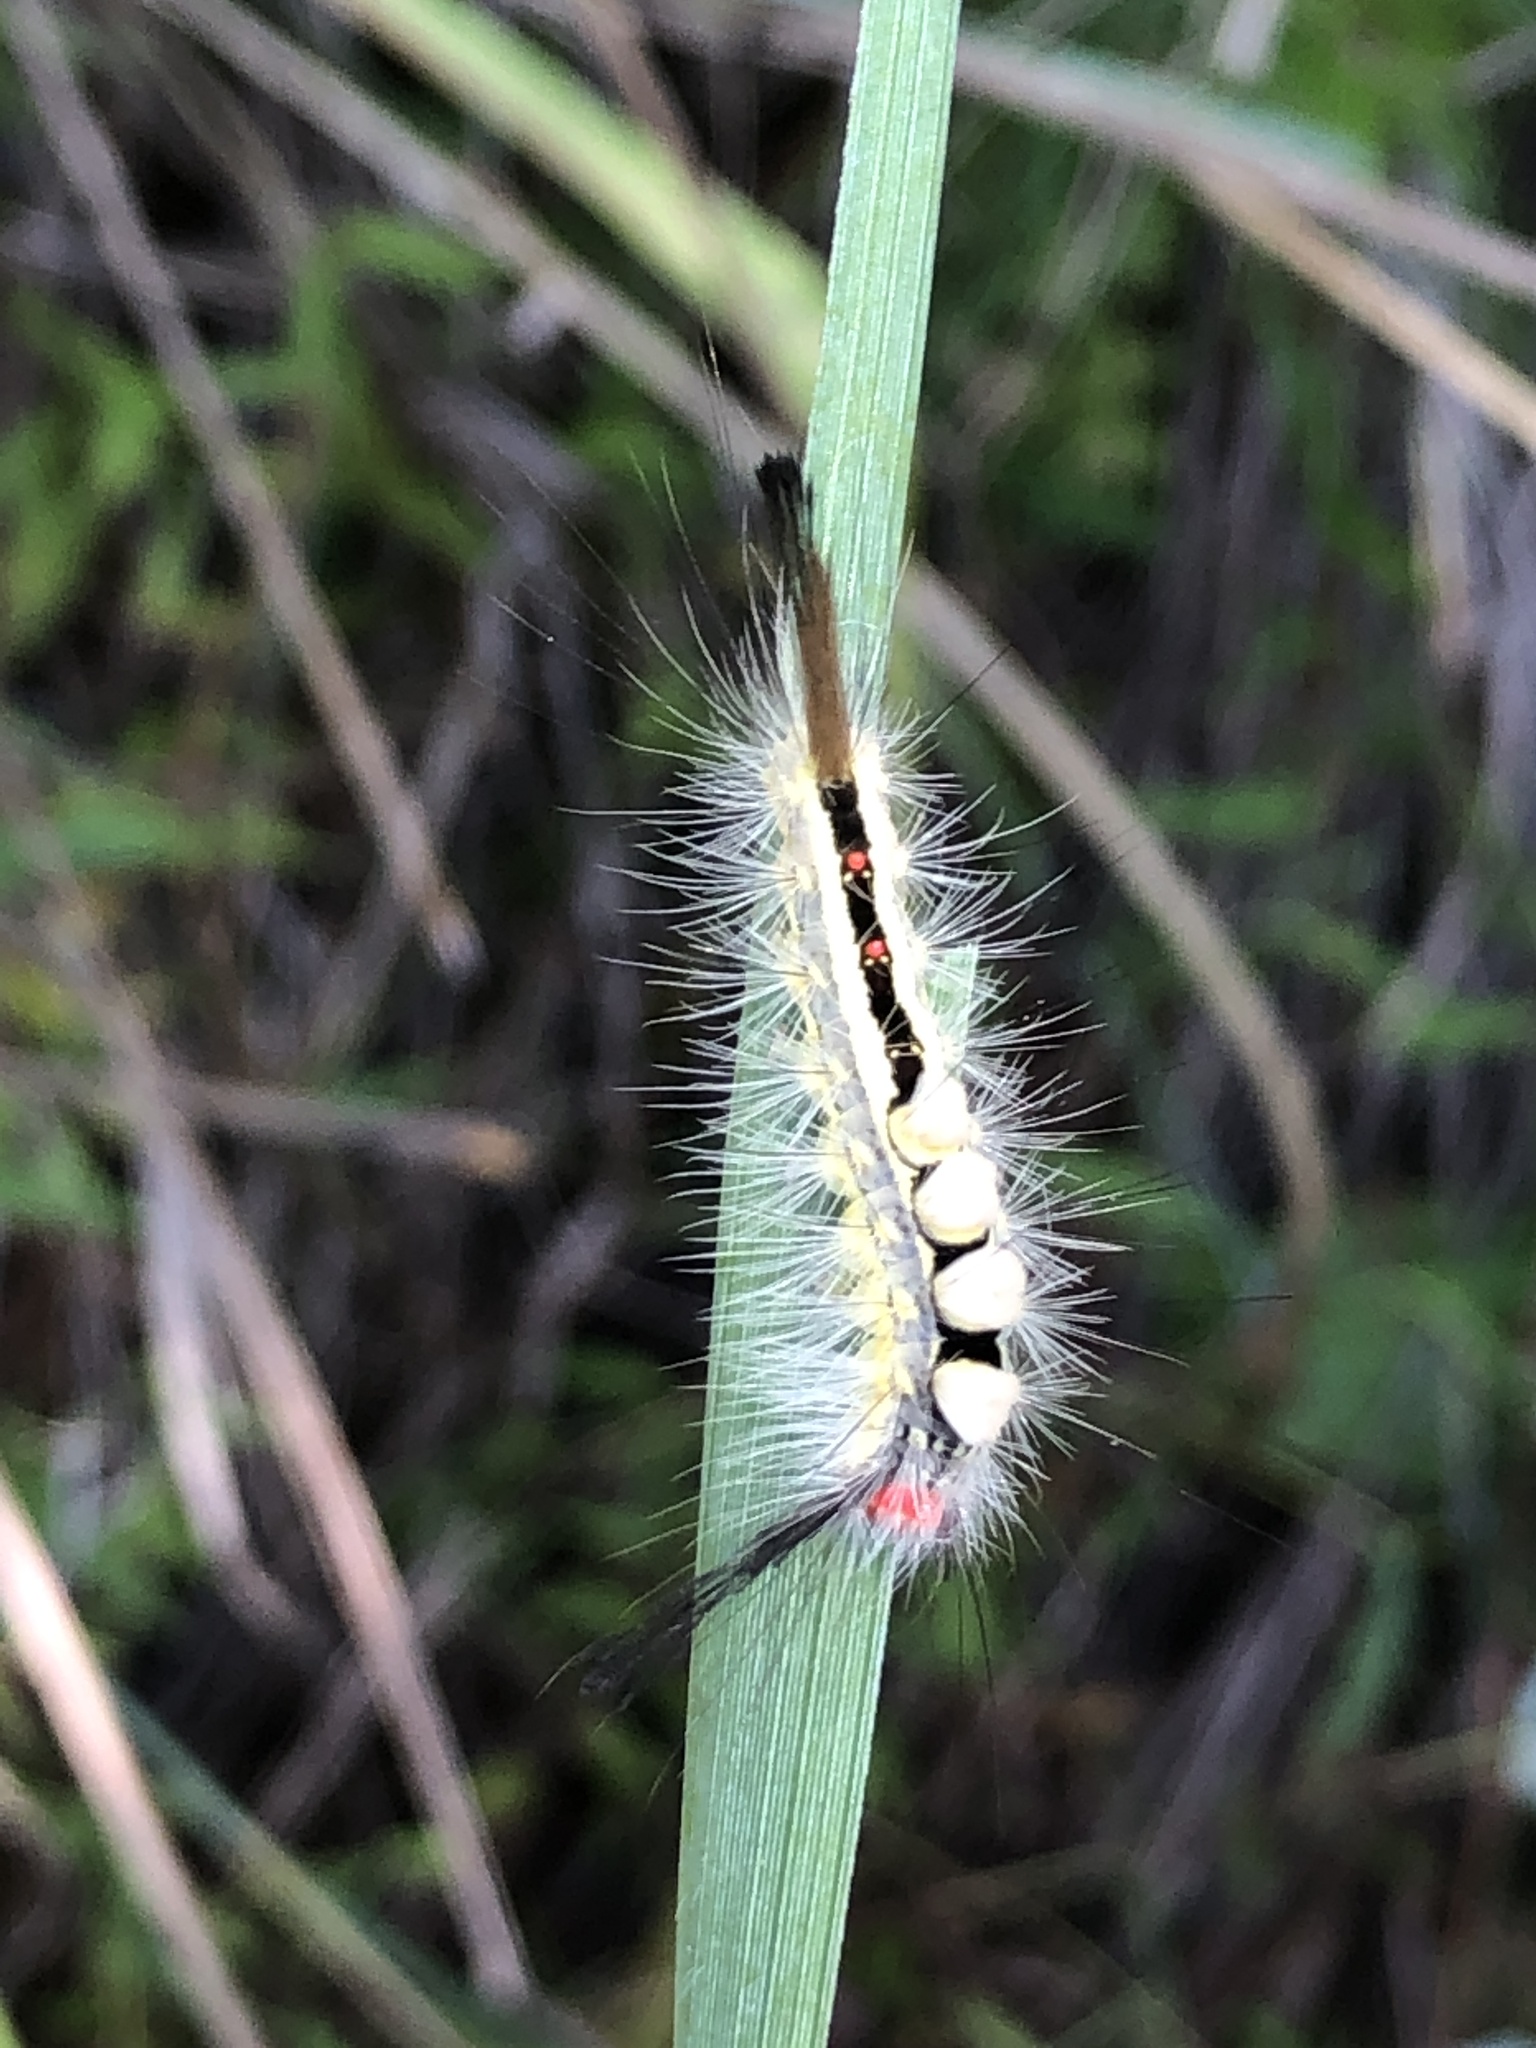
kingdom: Animalia
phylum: Arthropoda
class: Insecta
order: Lepidoptera
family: Erebidae
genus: Orgyia
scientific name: Orgyia leucostigma
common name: White-marked tussock moth
